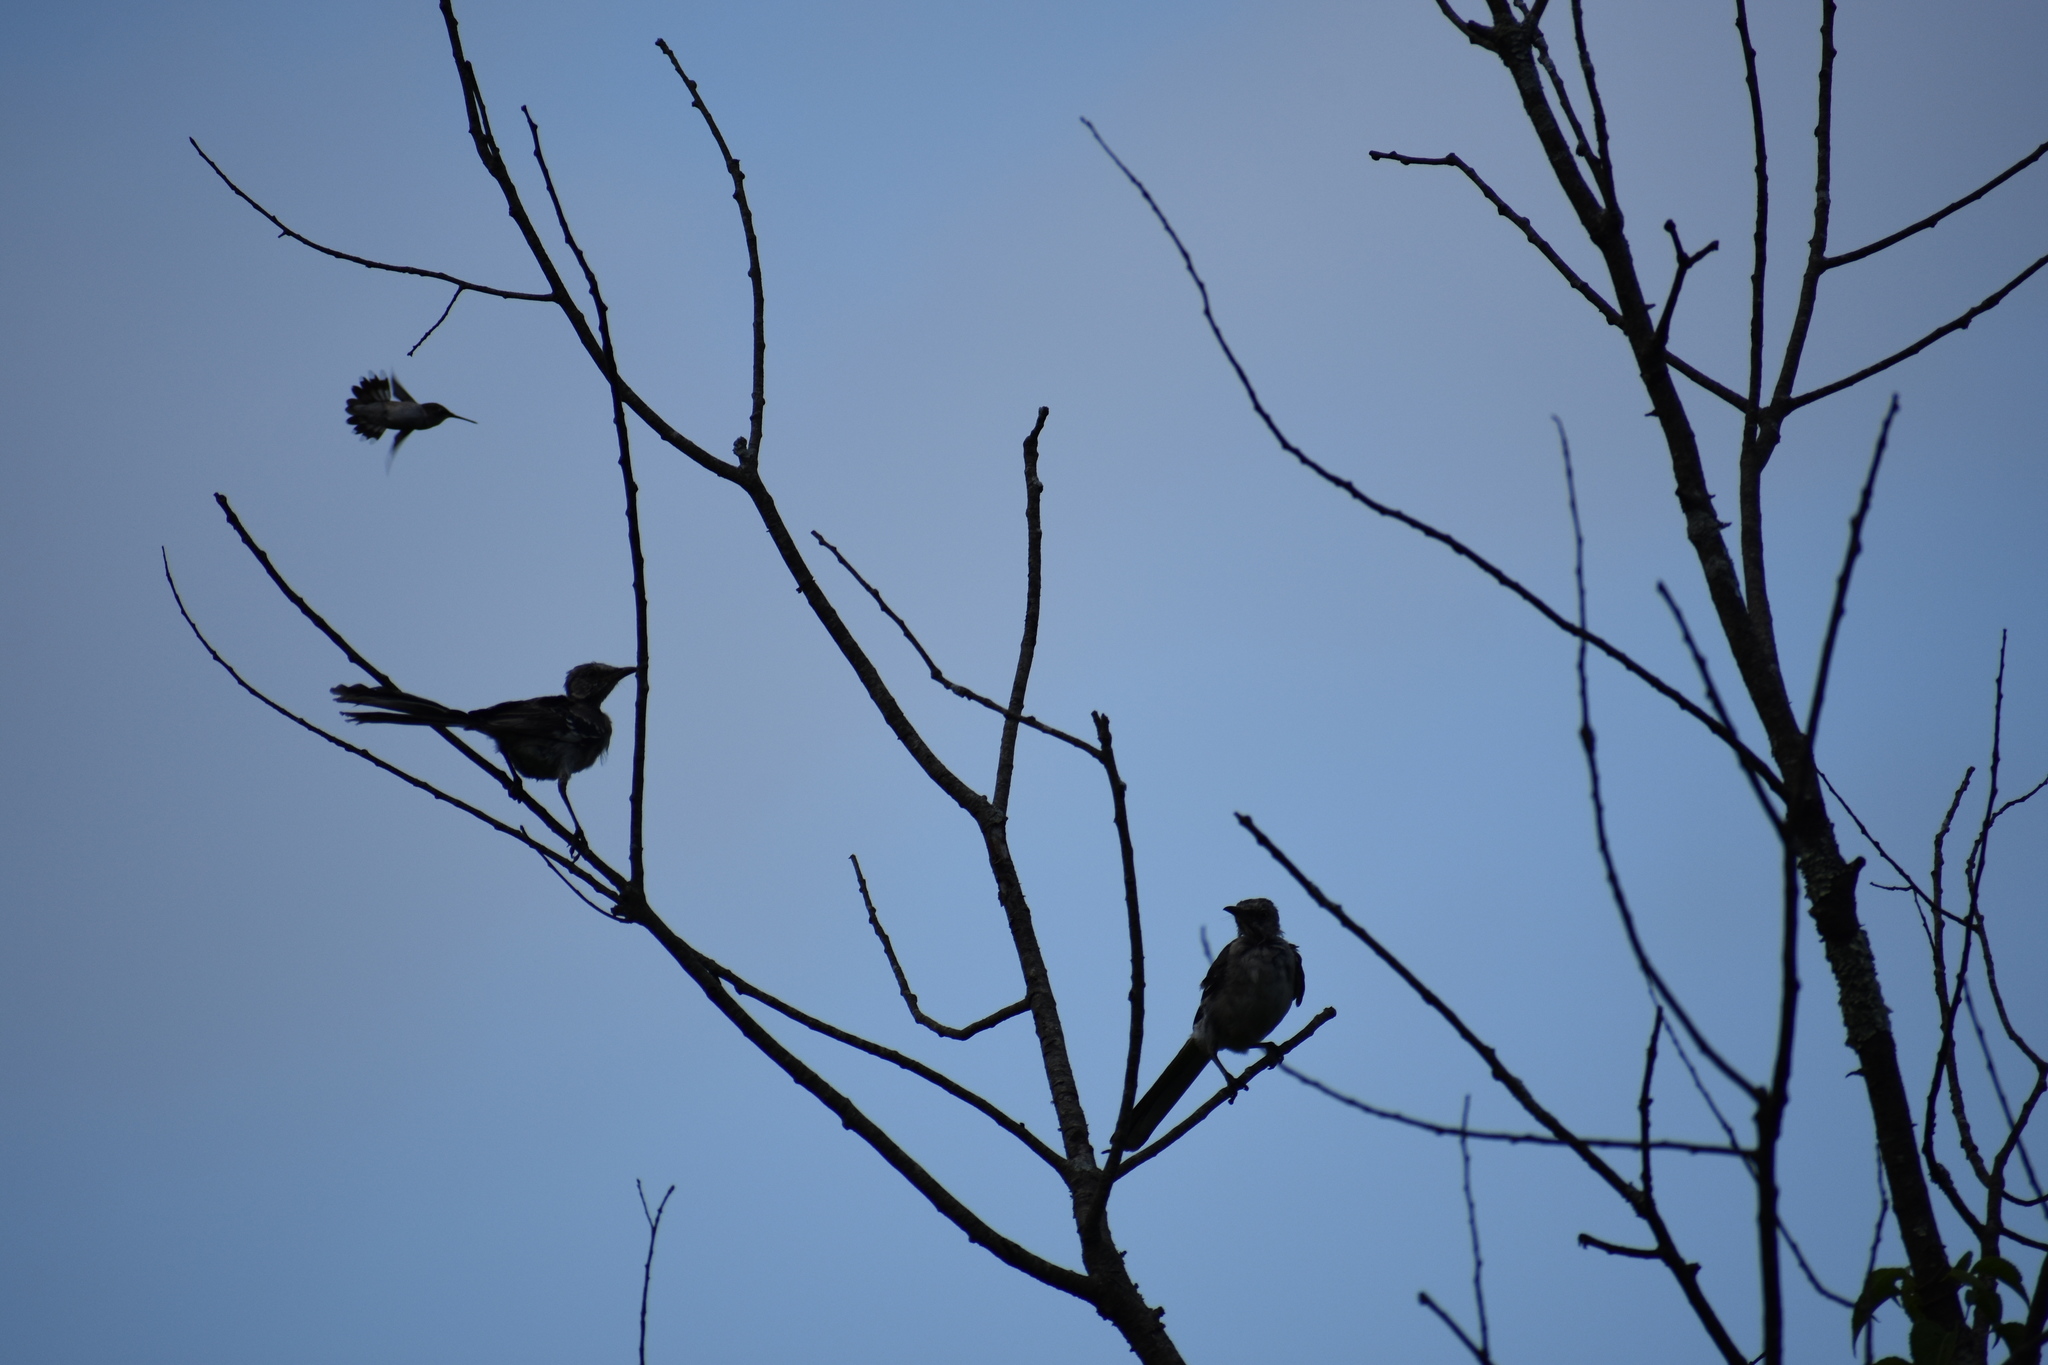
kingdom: Animalia
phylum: Chordata
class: Aves
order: Apodiformes
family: Trochilidae
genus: Archilochus
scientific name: Archilochus colubris
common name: Ruby-throated hummingbird
